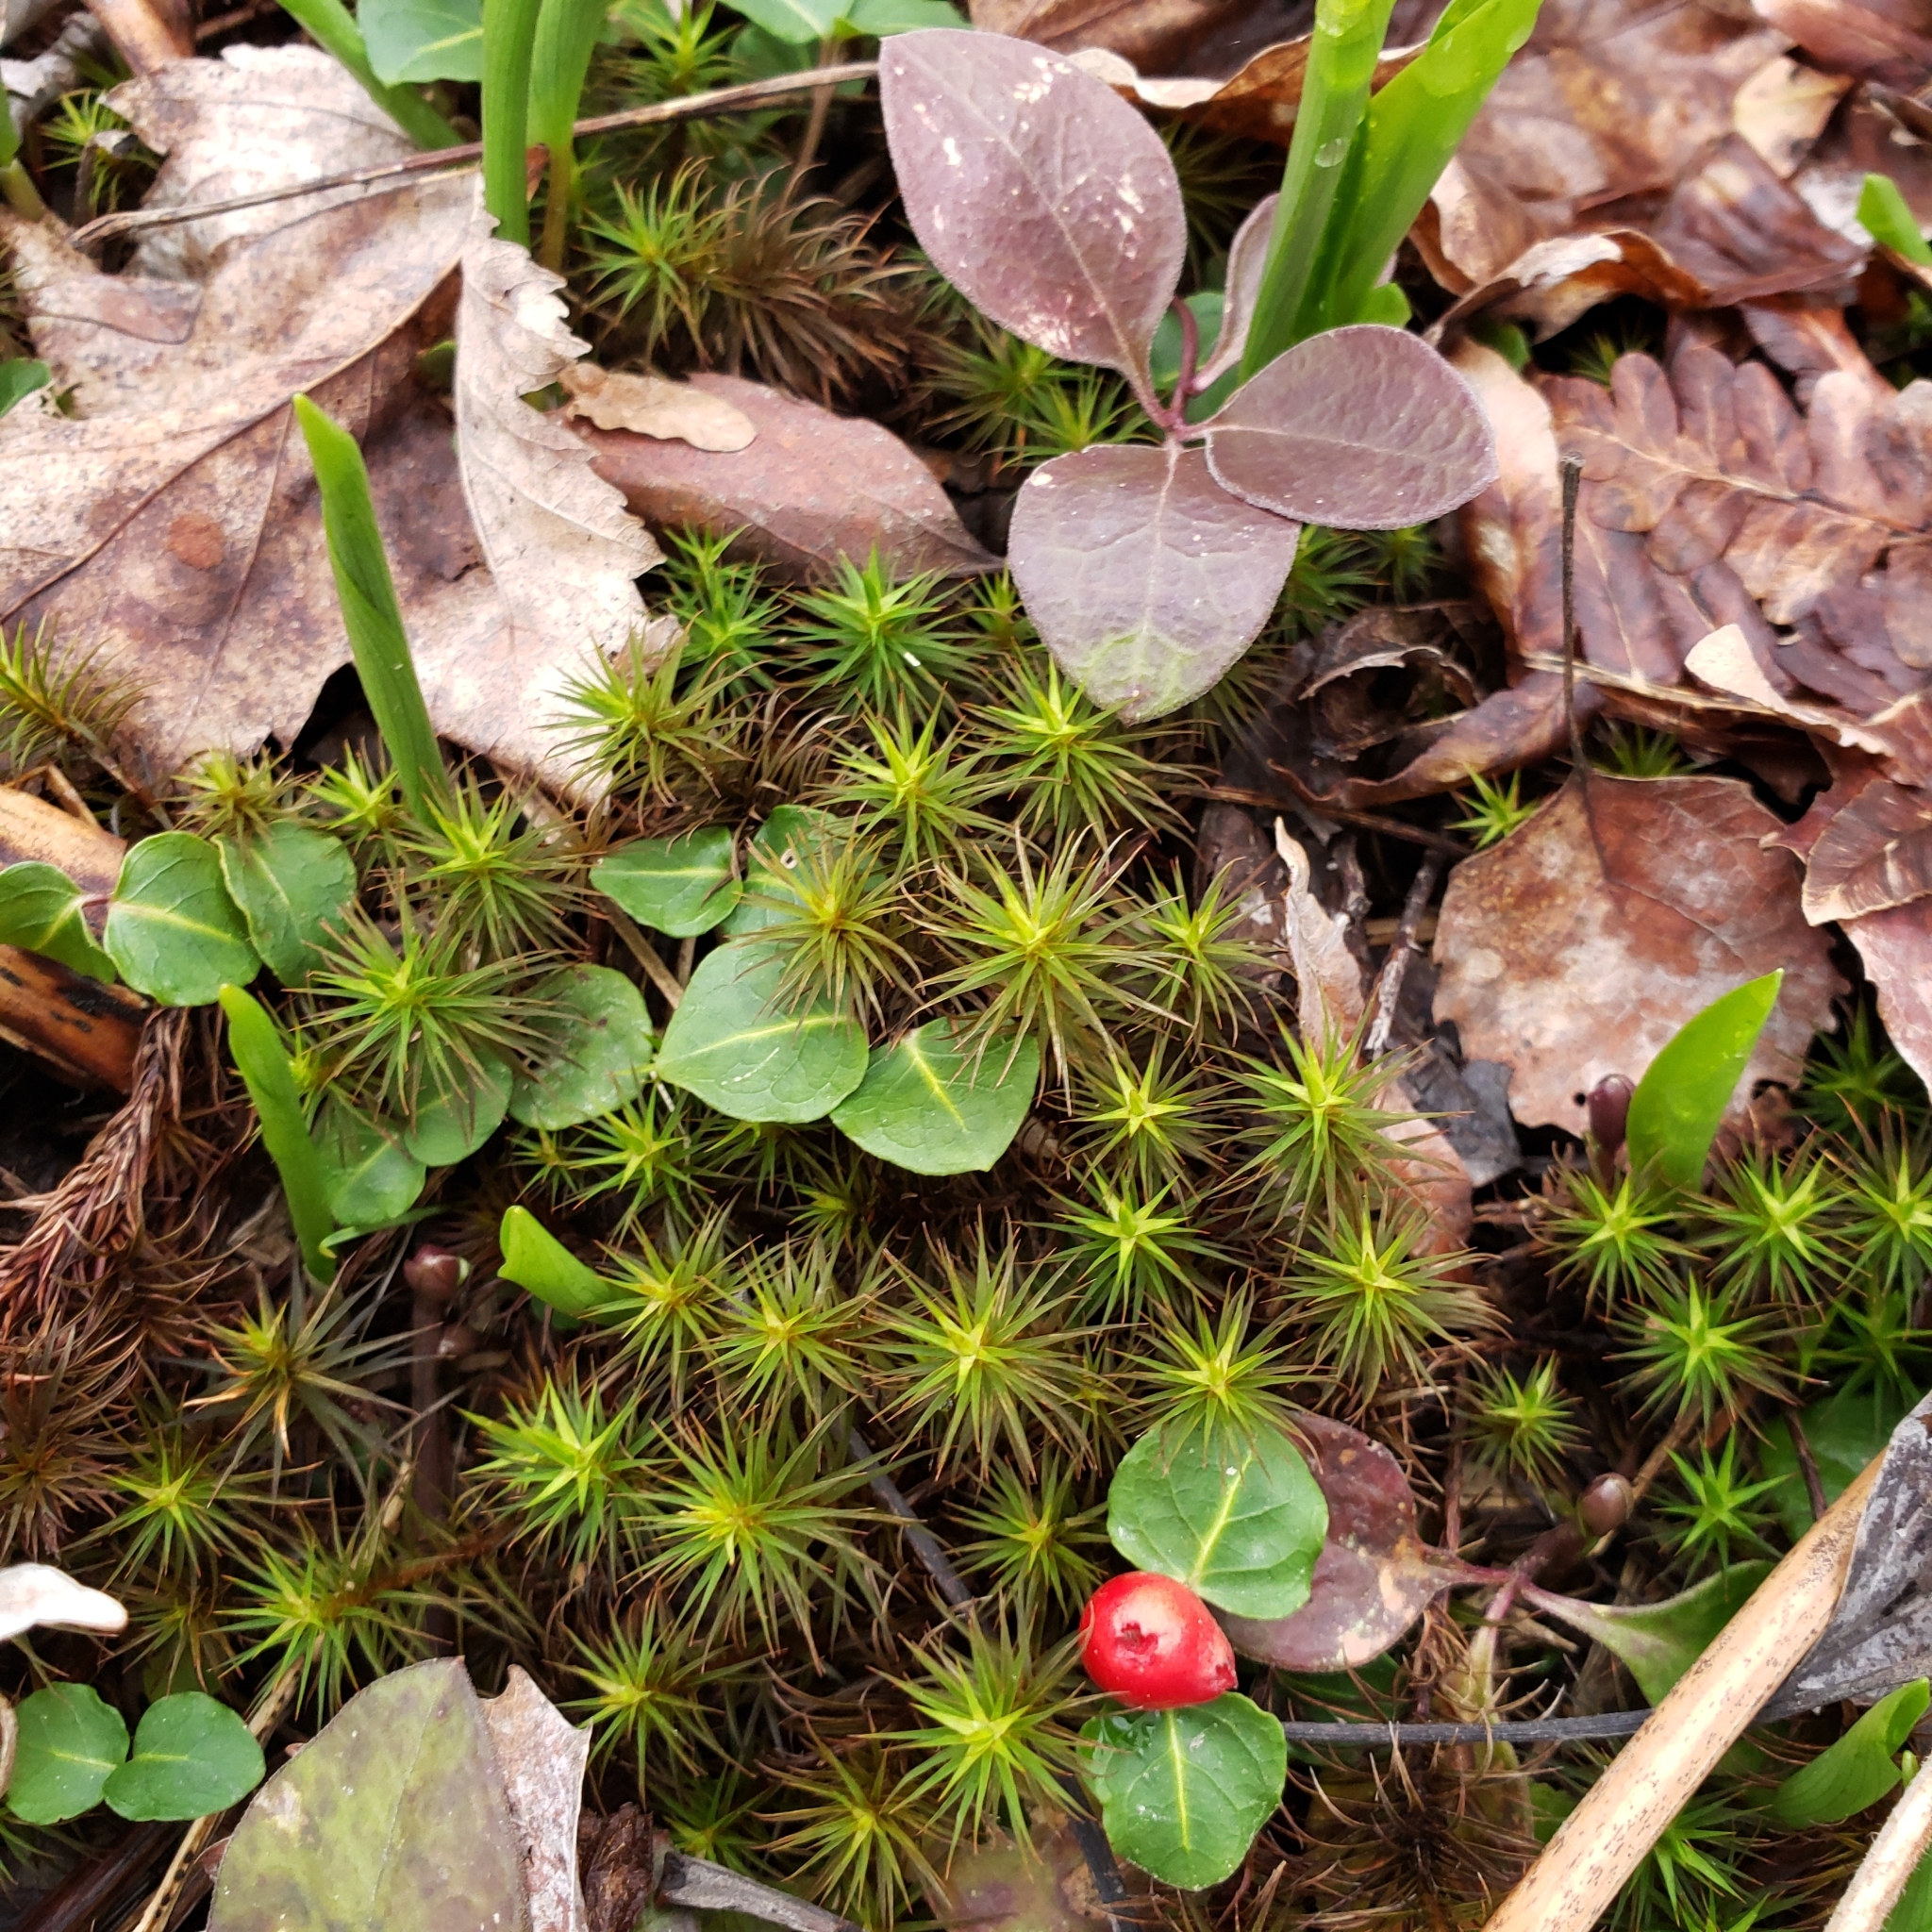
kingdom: Plantae
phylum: Tracheophyta
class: Magnoliopsida
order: Gentianales
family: Rubiaceae
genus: Mitchella
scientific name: Mitchella repens
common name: Partridge-berry
